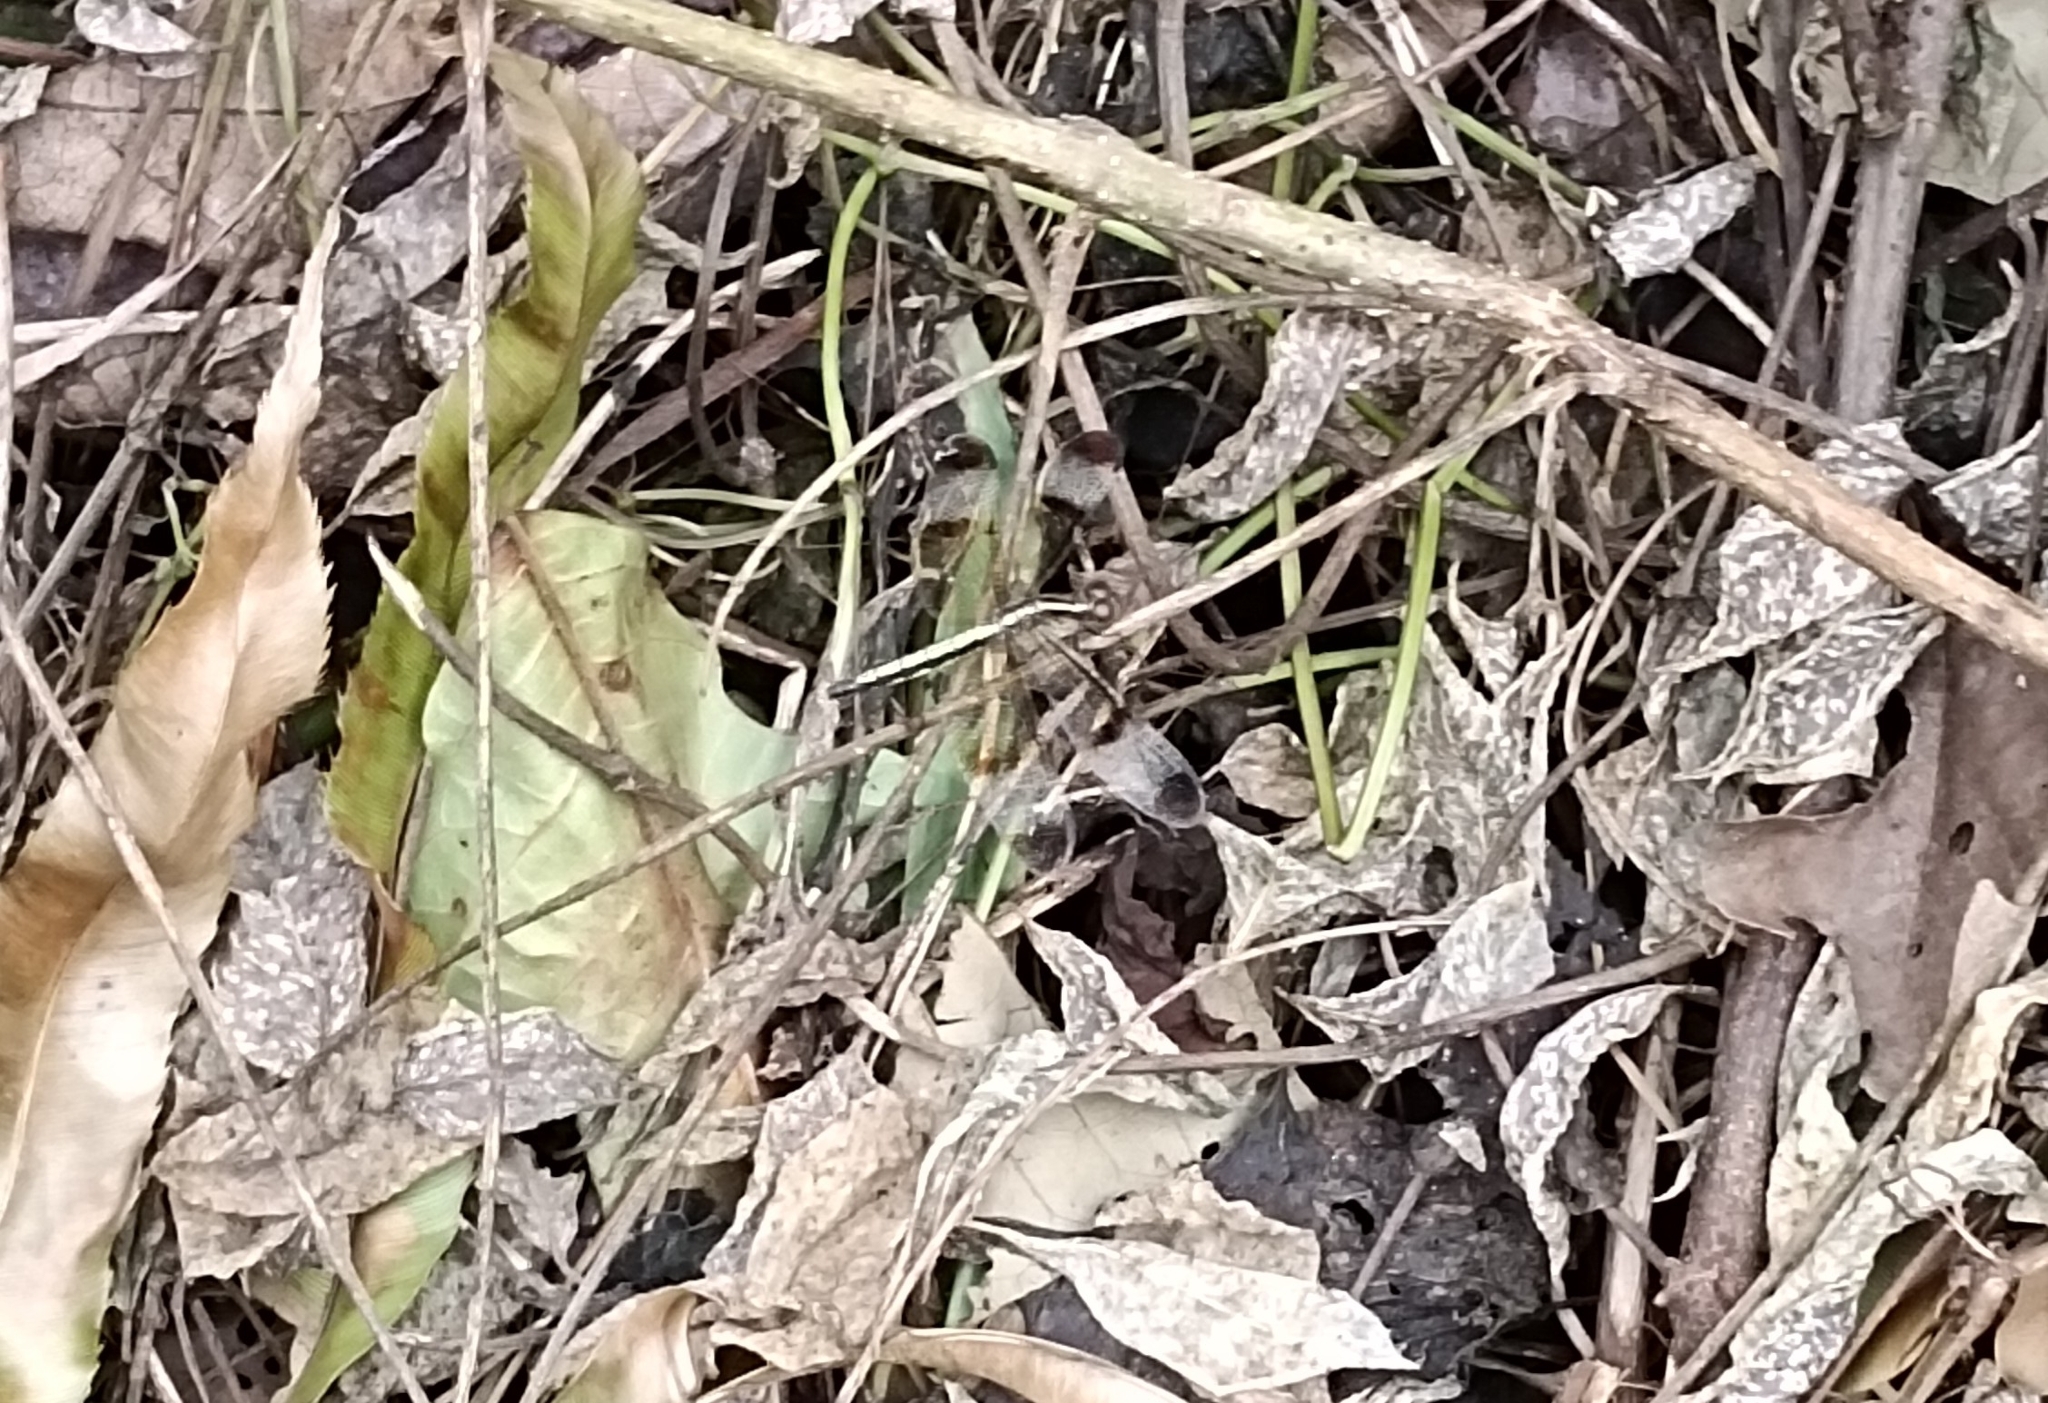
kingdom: Animalia
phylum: Arthropoda
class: Insecta
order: Odonata
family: Libellulidae
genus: Neurothemis
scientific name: Neurothemis tullia
